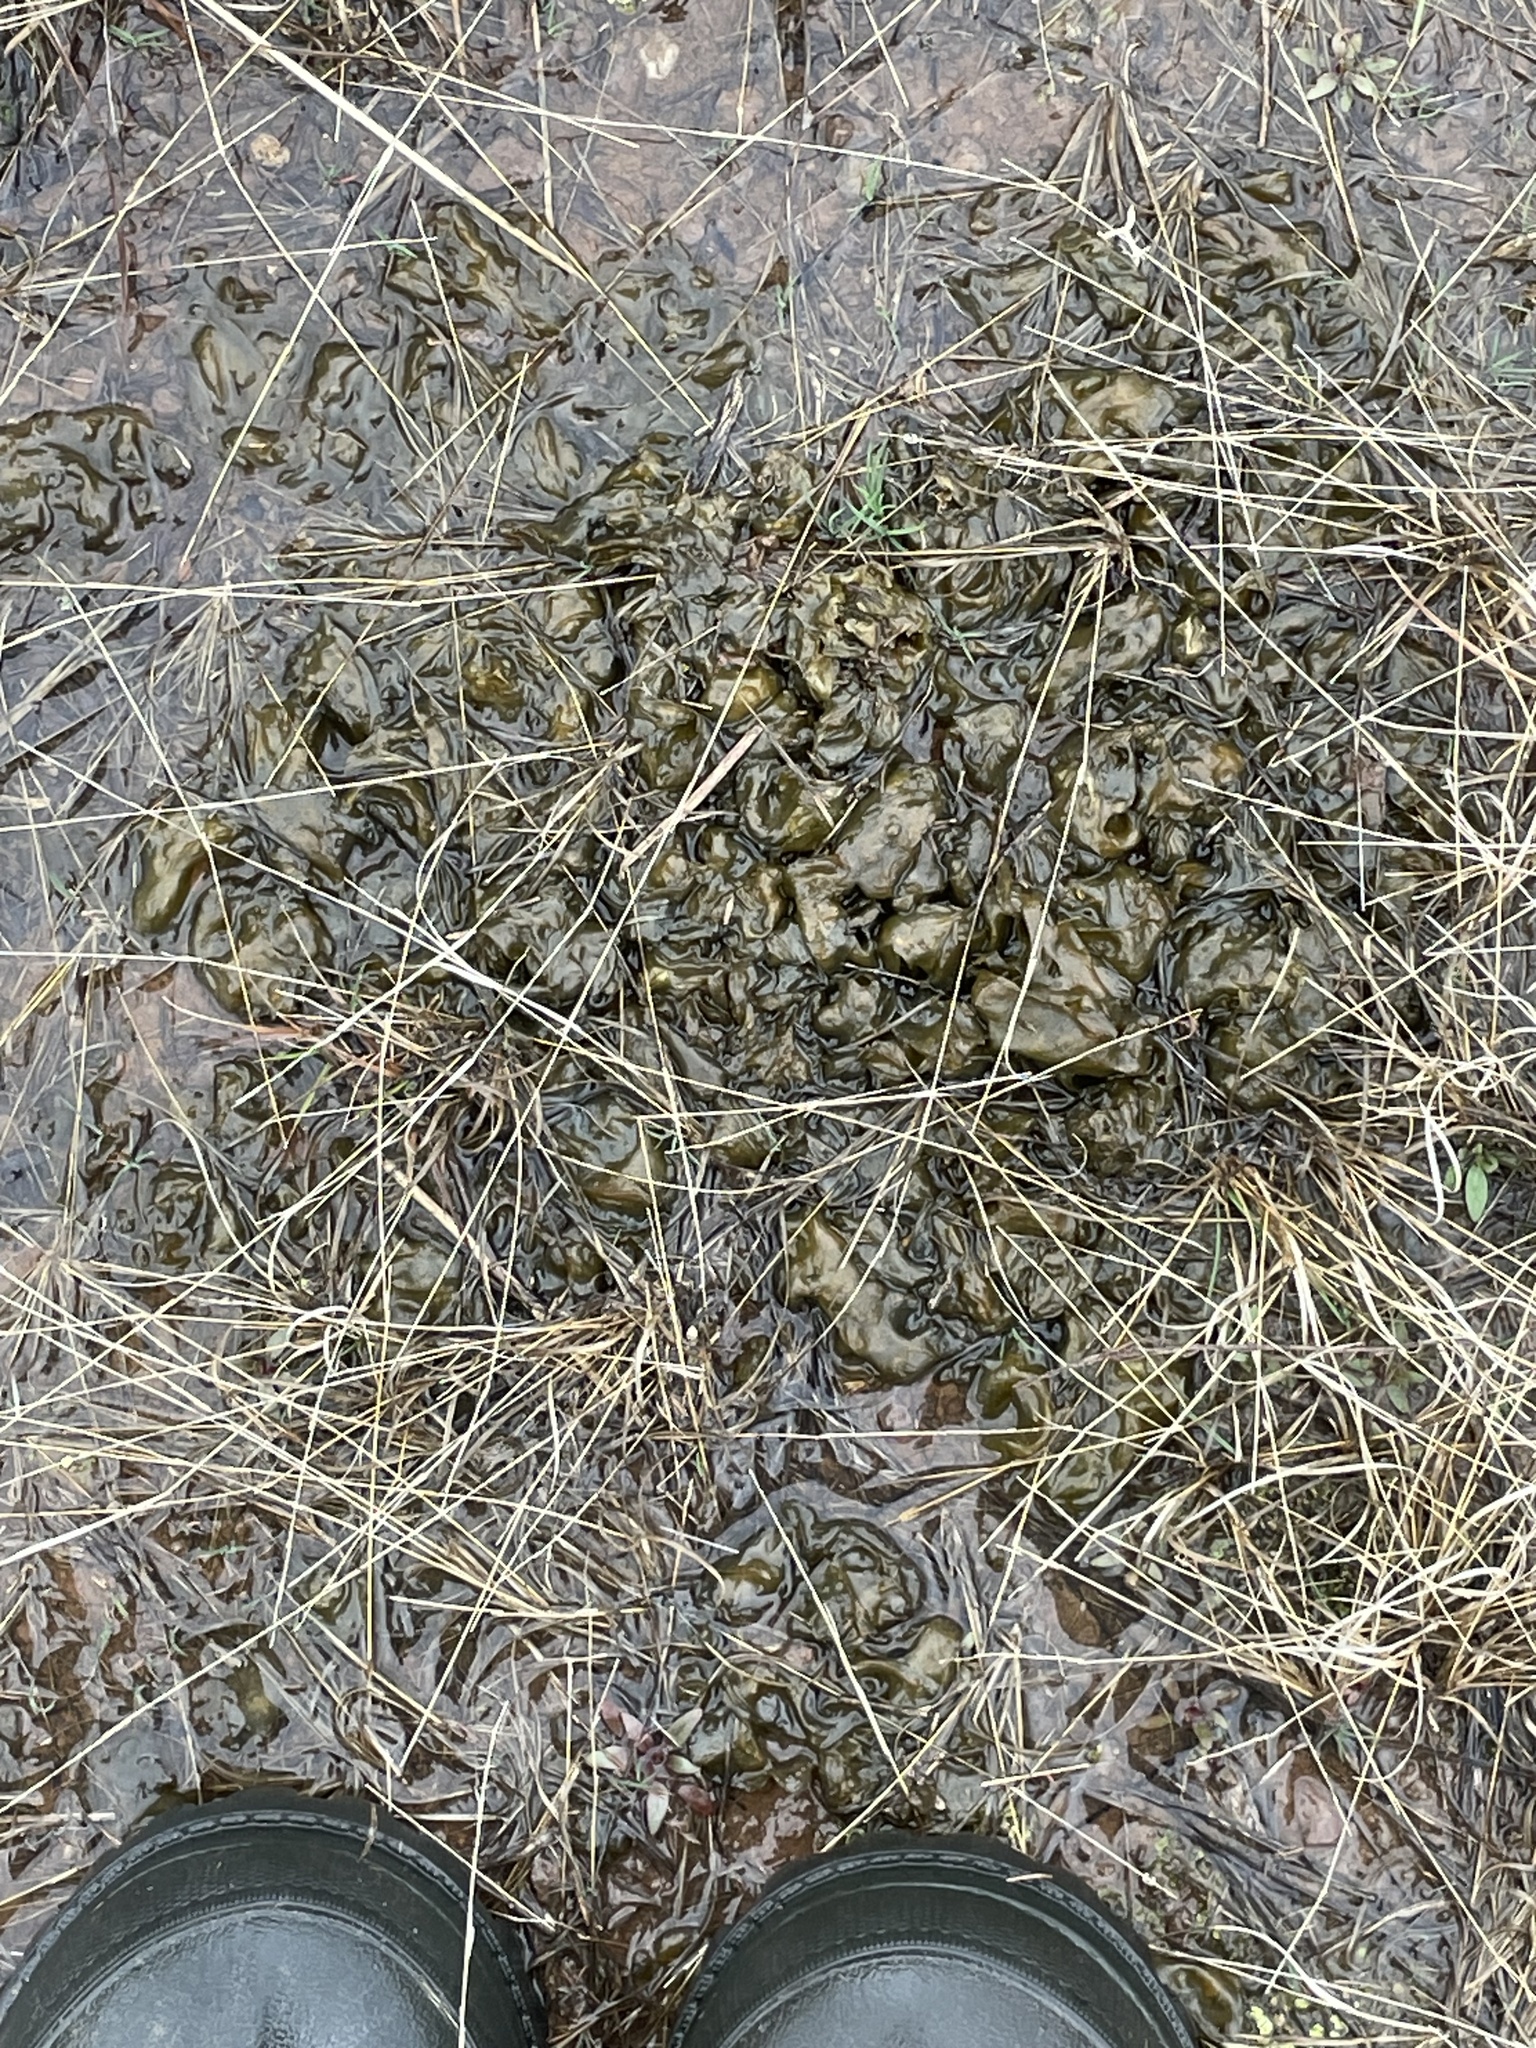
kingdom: Bacteria
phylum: Cyanobacteria
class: Cyanobacteriia
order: Cyanobacteriales
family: Nostocaceae
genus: Nostoc
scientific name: Nostoc commune
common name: Star jelly
